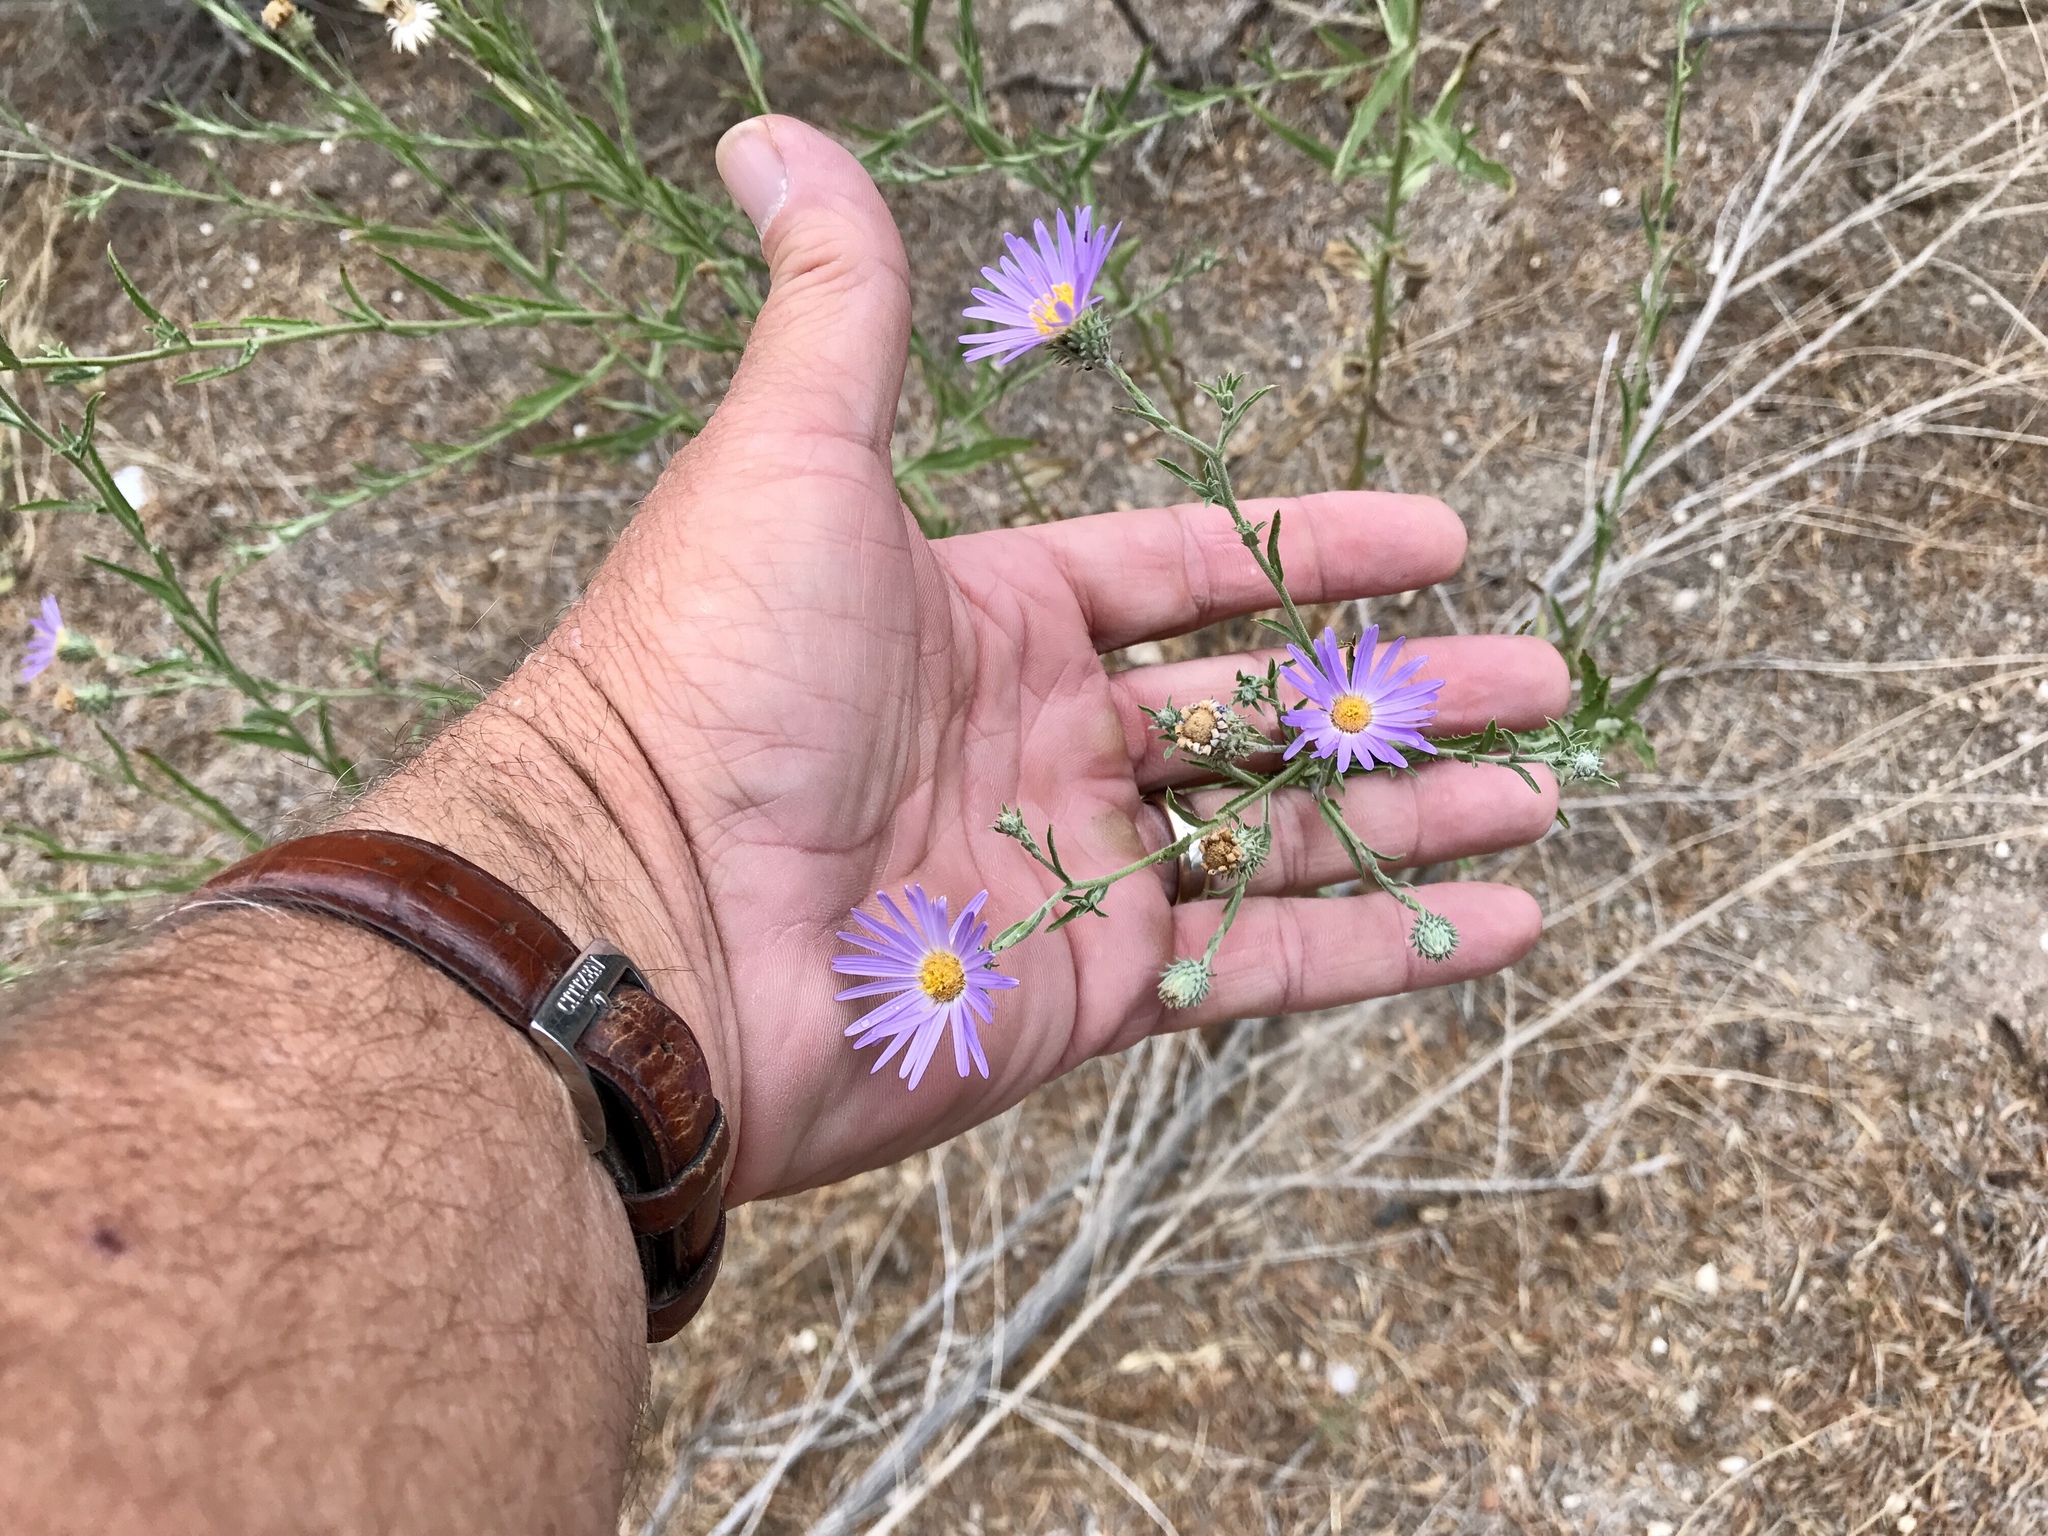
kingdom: Plantae
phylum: Tracheophyta
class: Magnoliopsida
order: Asterales
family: Asteraceae
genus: Machaeranthera
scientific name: Machaeranthera tanacetifolia
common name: Tansy-aster
